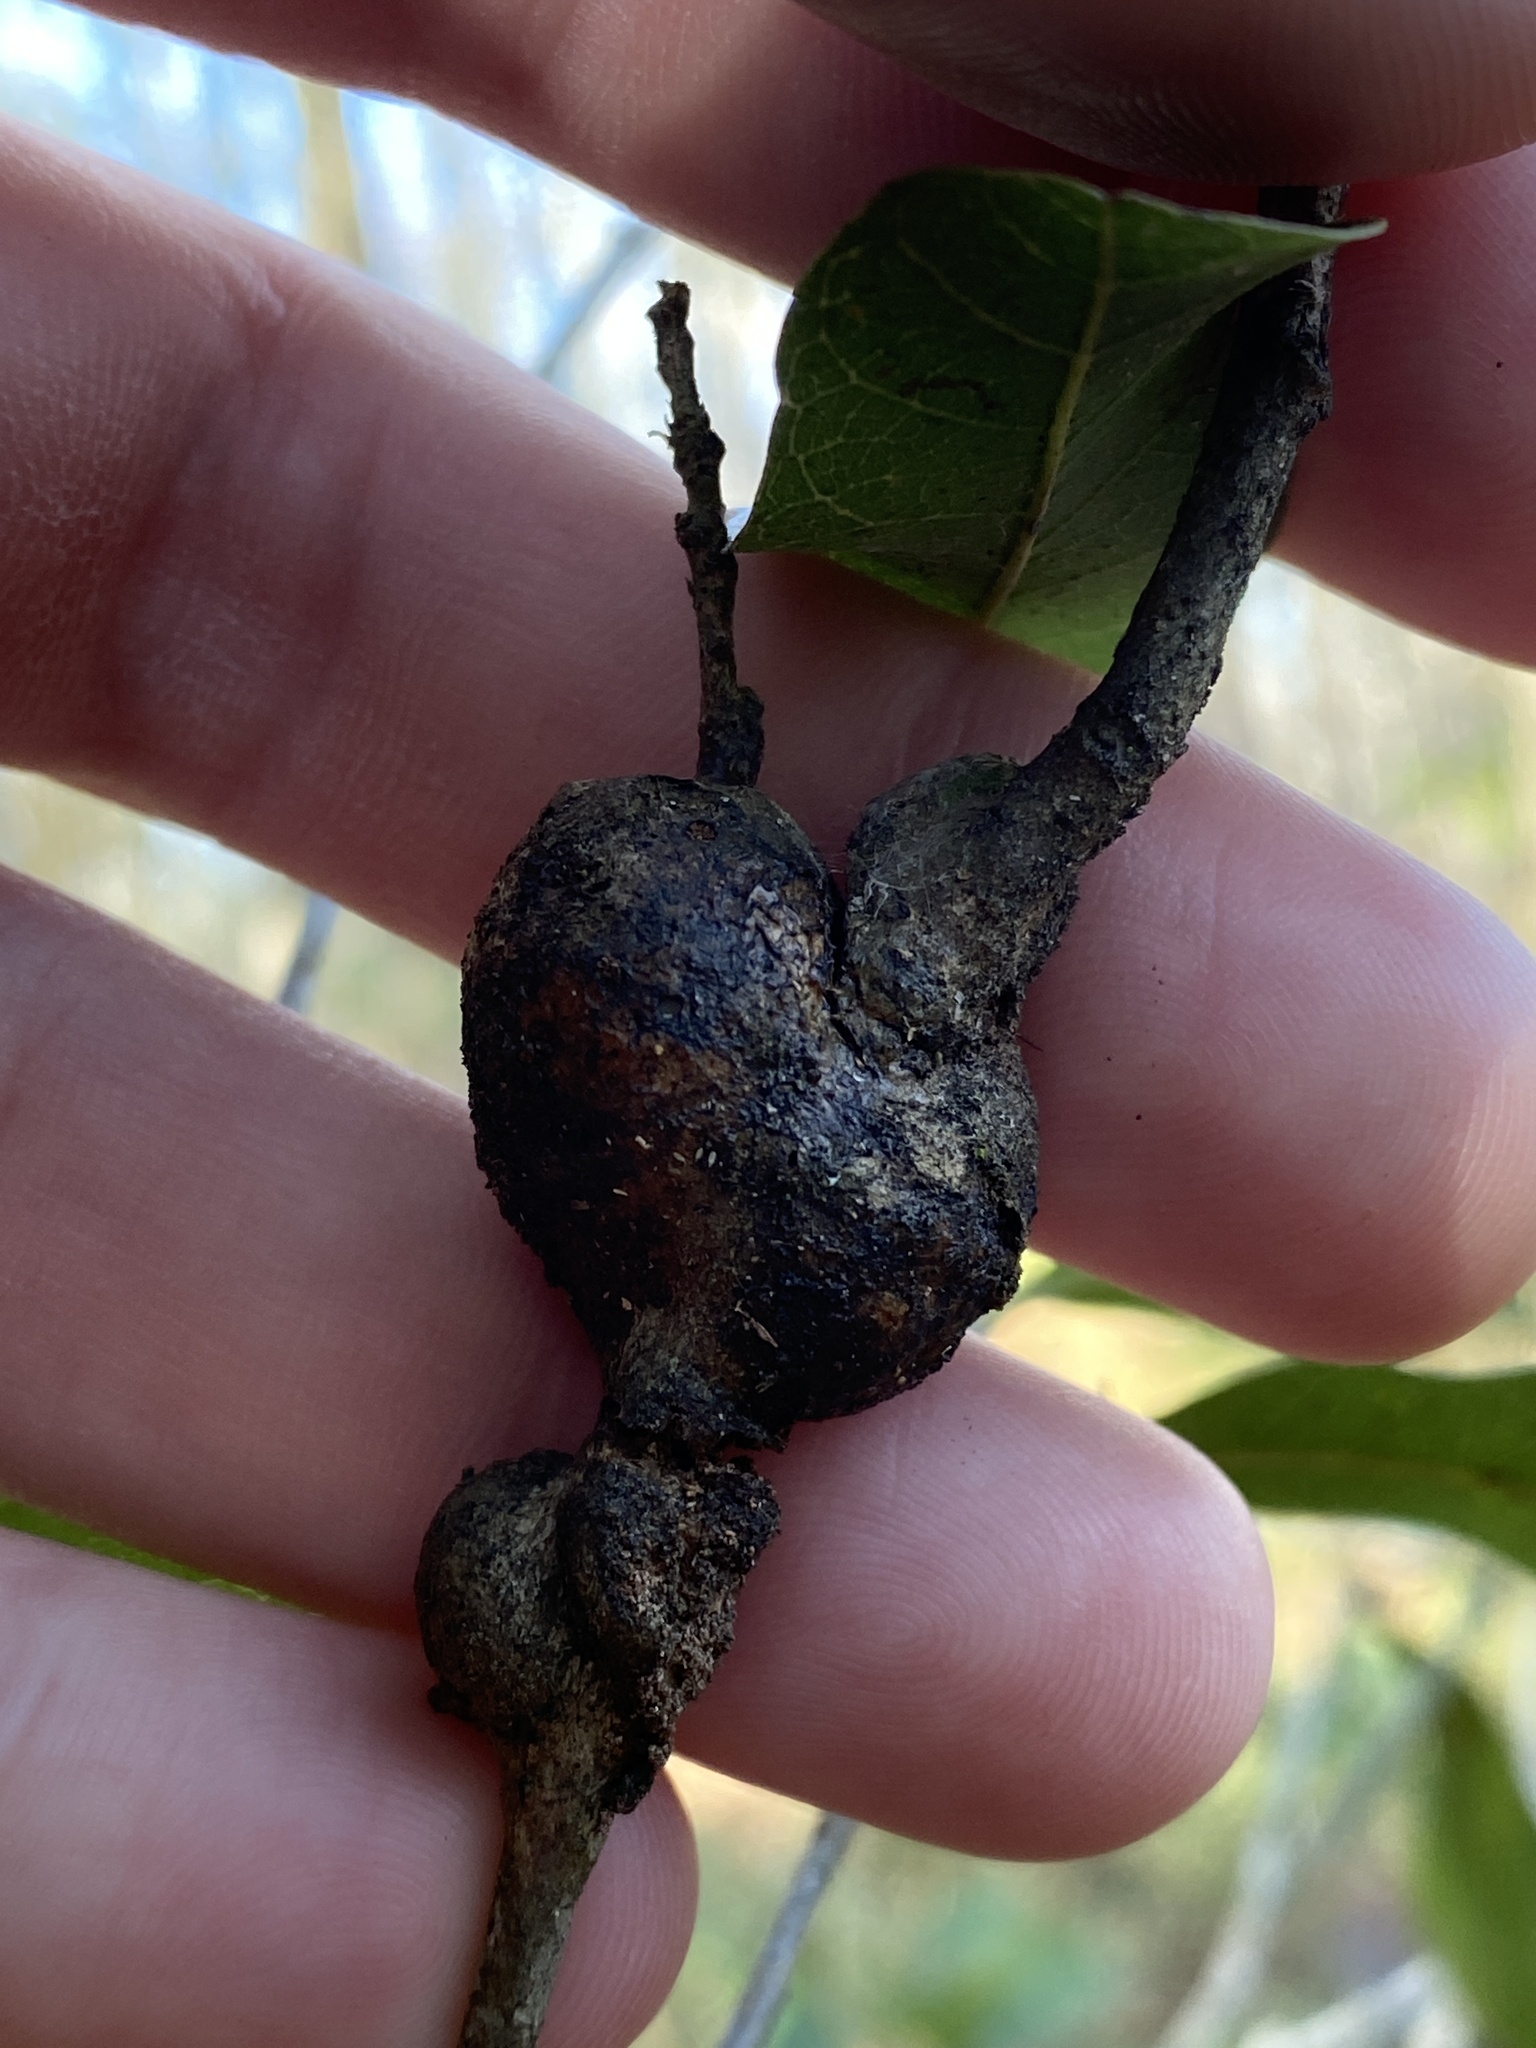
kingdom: Animalia
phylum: Arthropoda
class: Insecta
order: Hymenoptera
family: Cynipidae
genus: Callirhytis
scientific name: Callirhytis
